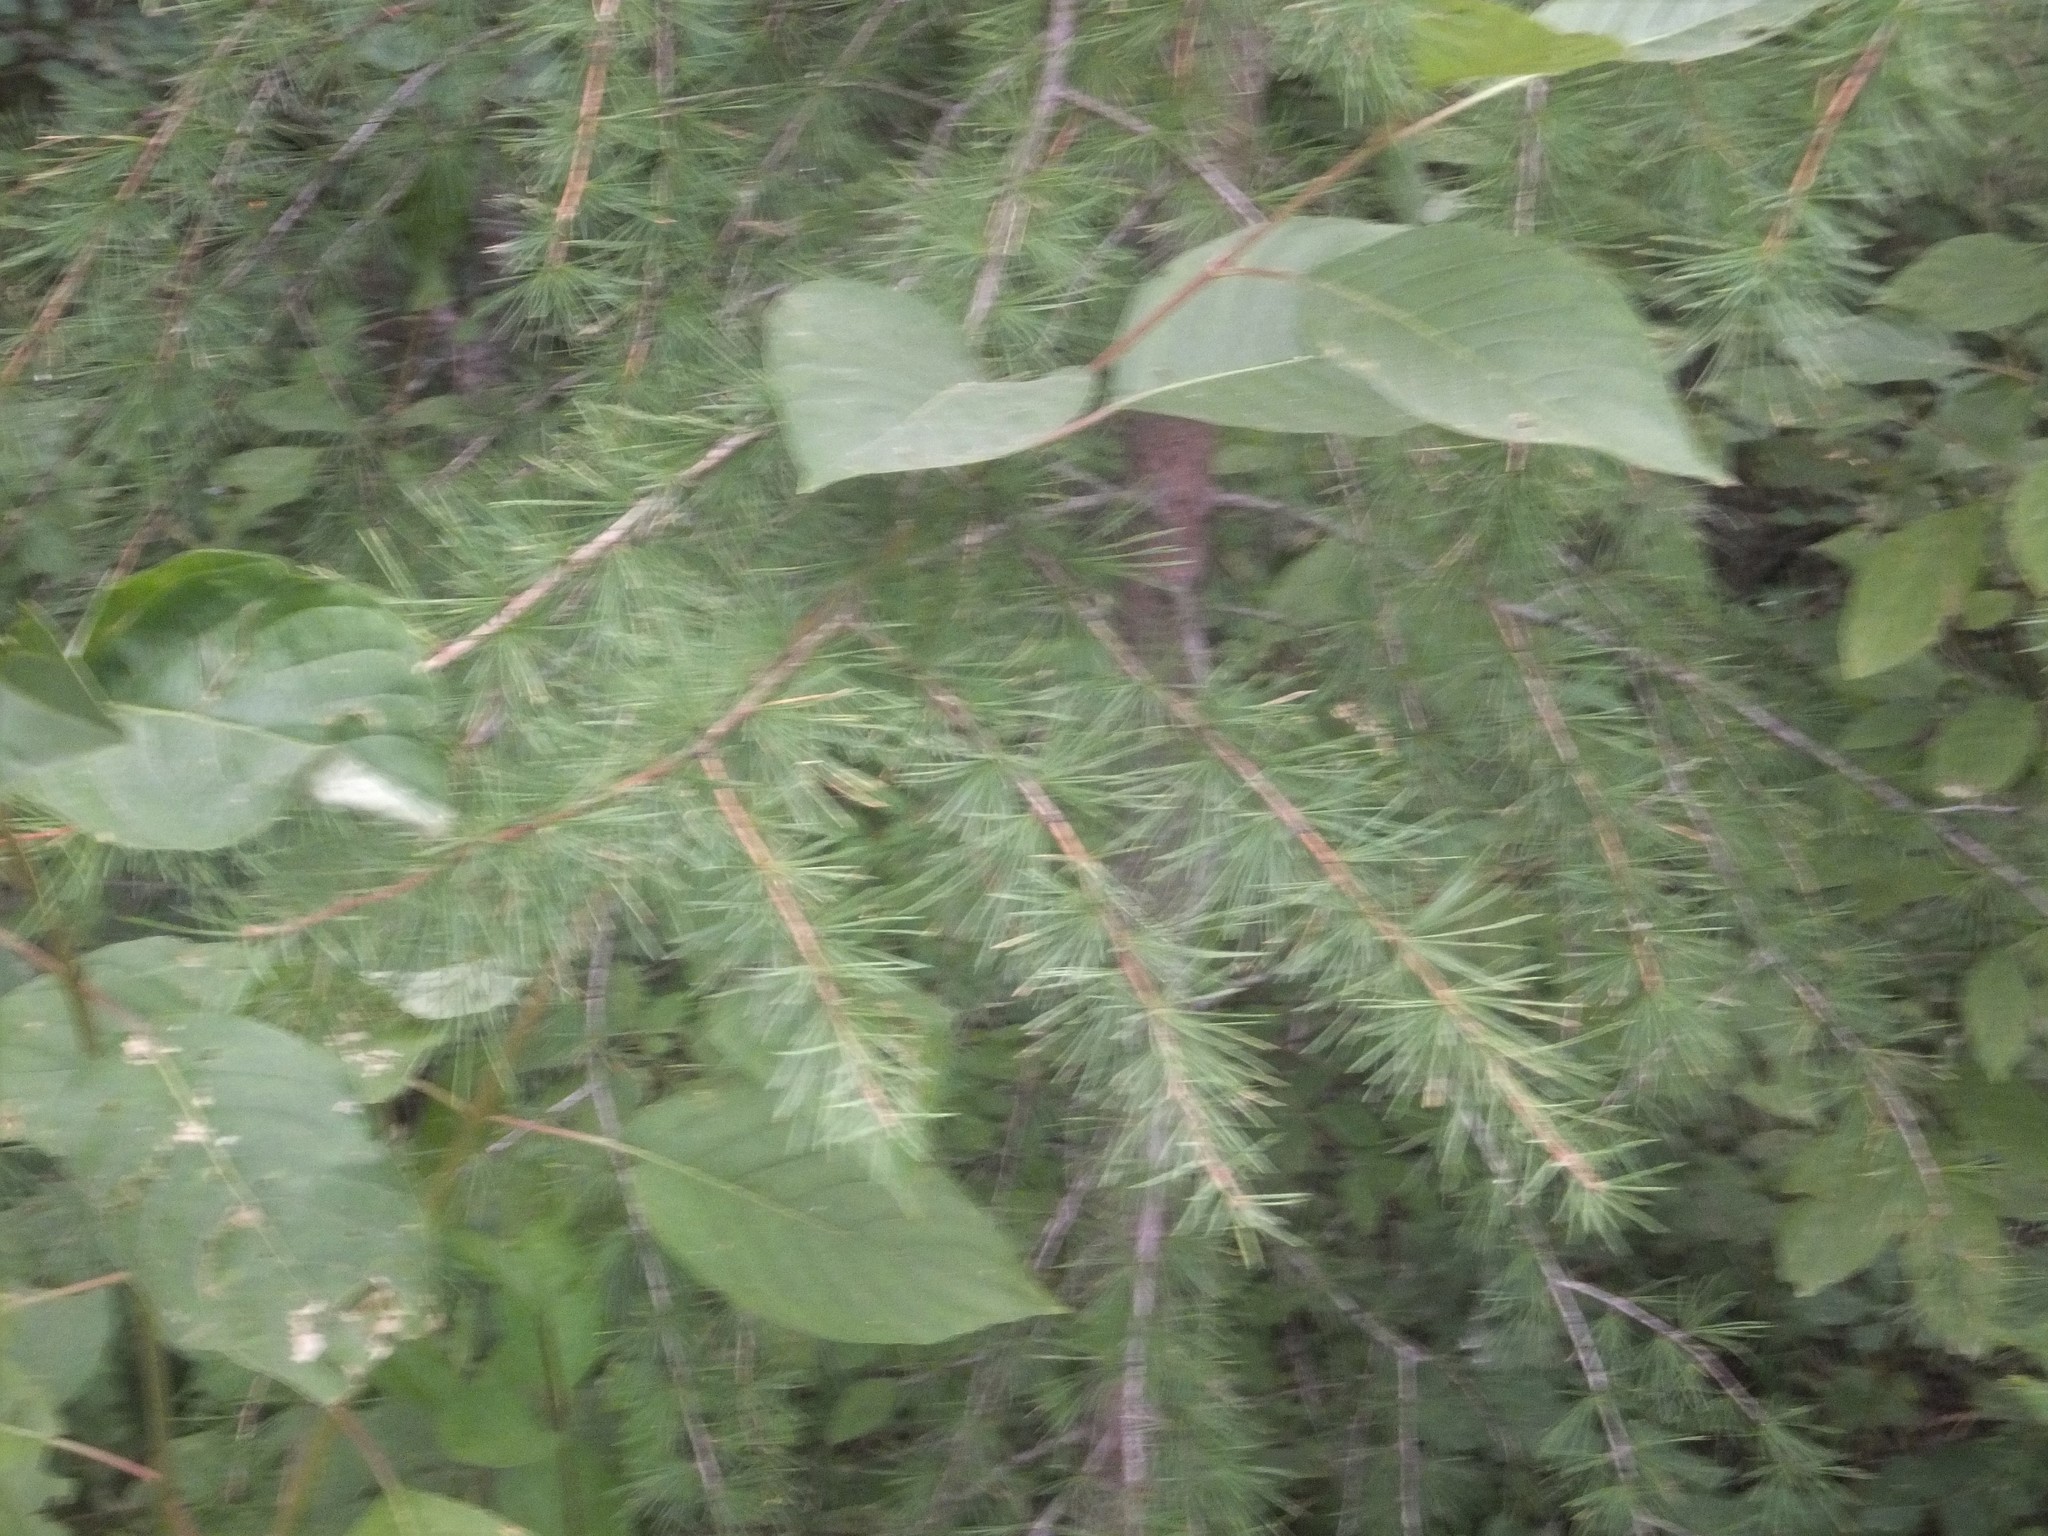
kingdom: Plantae
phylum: Tracheophyta
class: Pinopsida
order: Pinales
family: Pinaceae
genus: Larix
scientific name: Larix occidentalis
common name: Western larch
